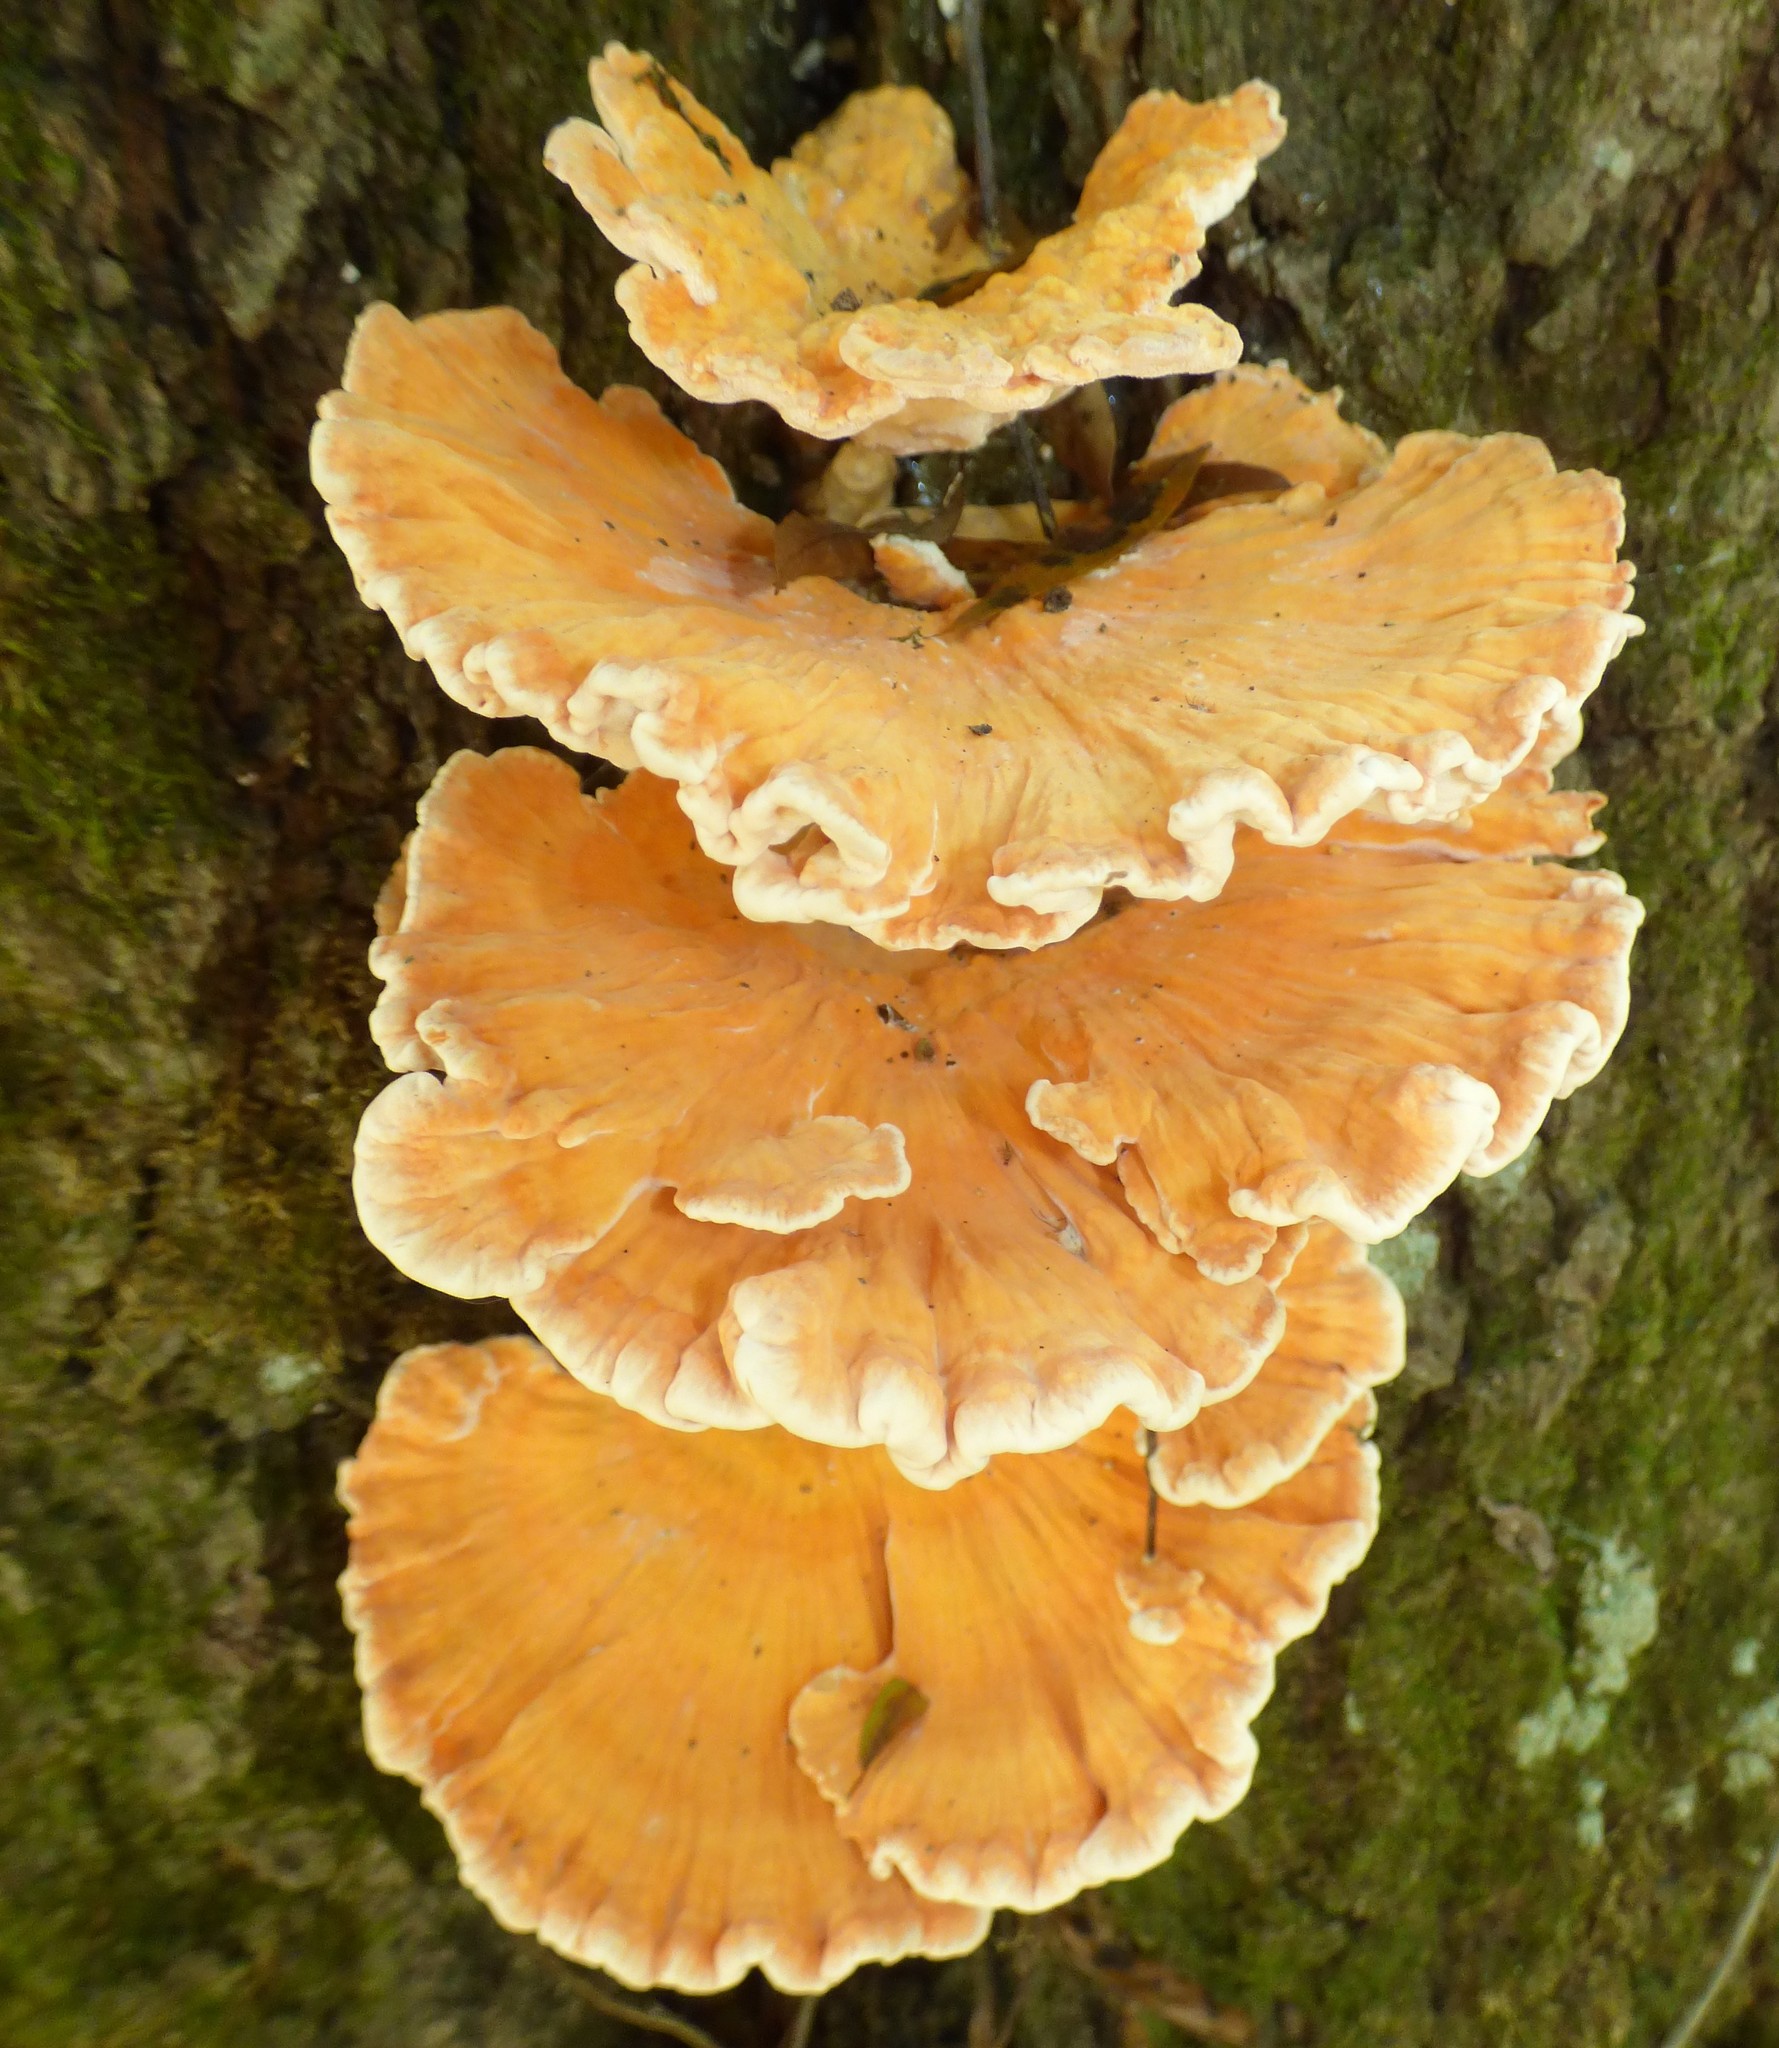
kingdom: Fungi
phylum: Basidiomycota
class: Agaricomycetes
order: Polyporales
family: Laetiporaceae
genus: Laetiporus
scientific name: Laetiporus sulphureus
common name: Chicken of the woods
